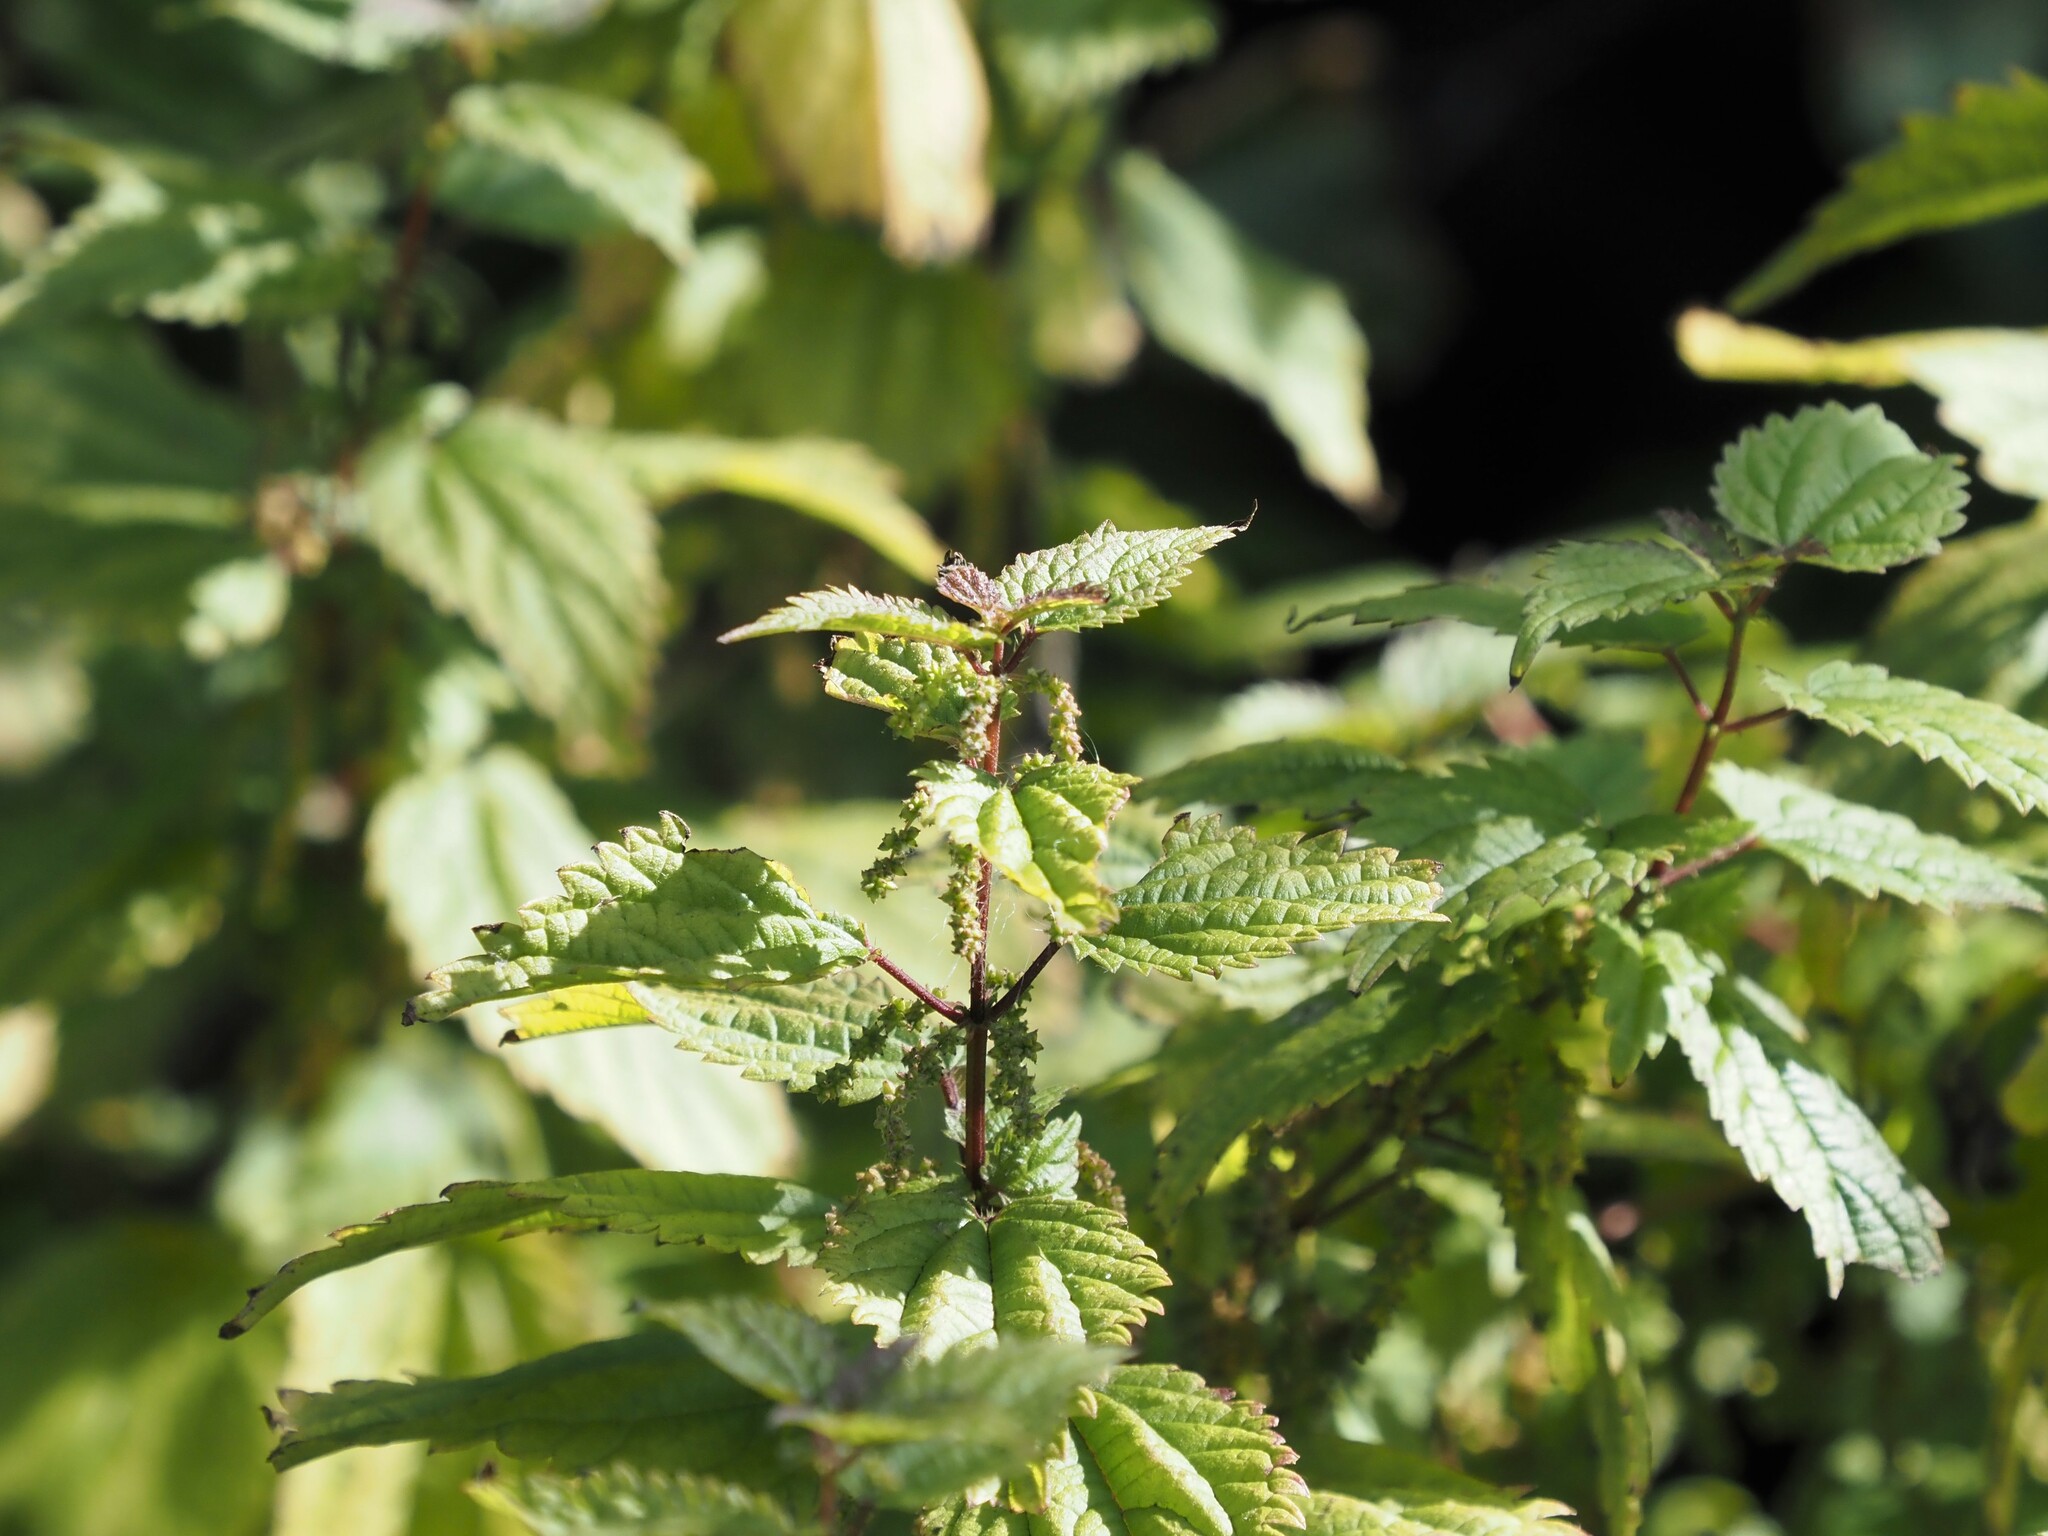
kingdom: Plantae
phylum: Tracheophyta
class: Magnoliopsida
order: Rosales
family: Urticaceae
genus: Urtica
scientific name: Urtica gracilis
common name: Slender stinging nettle
